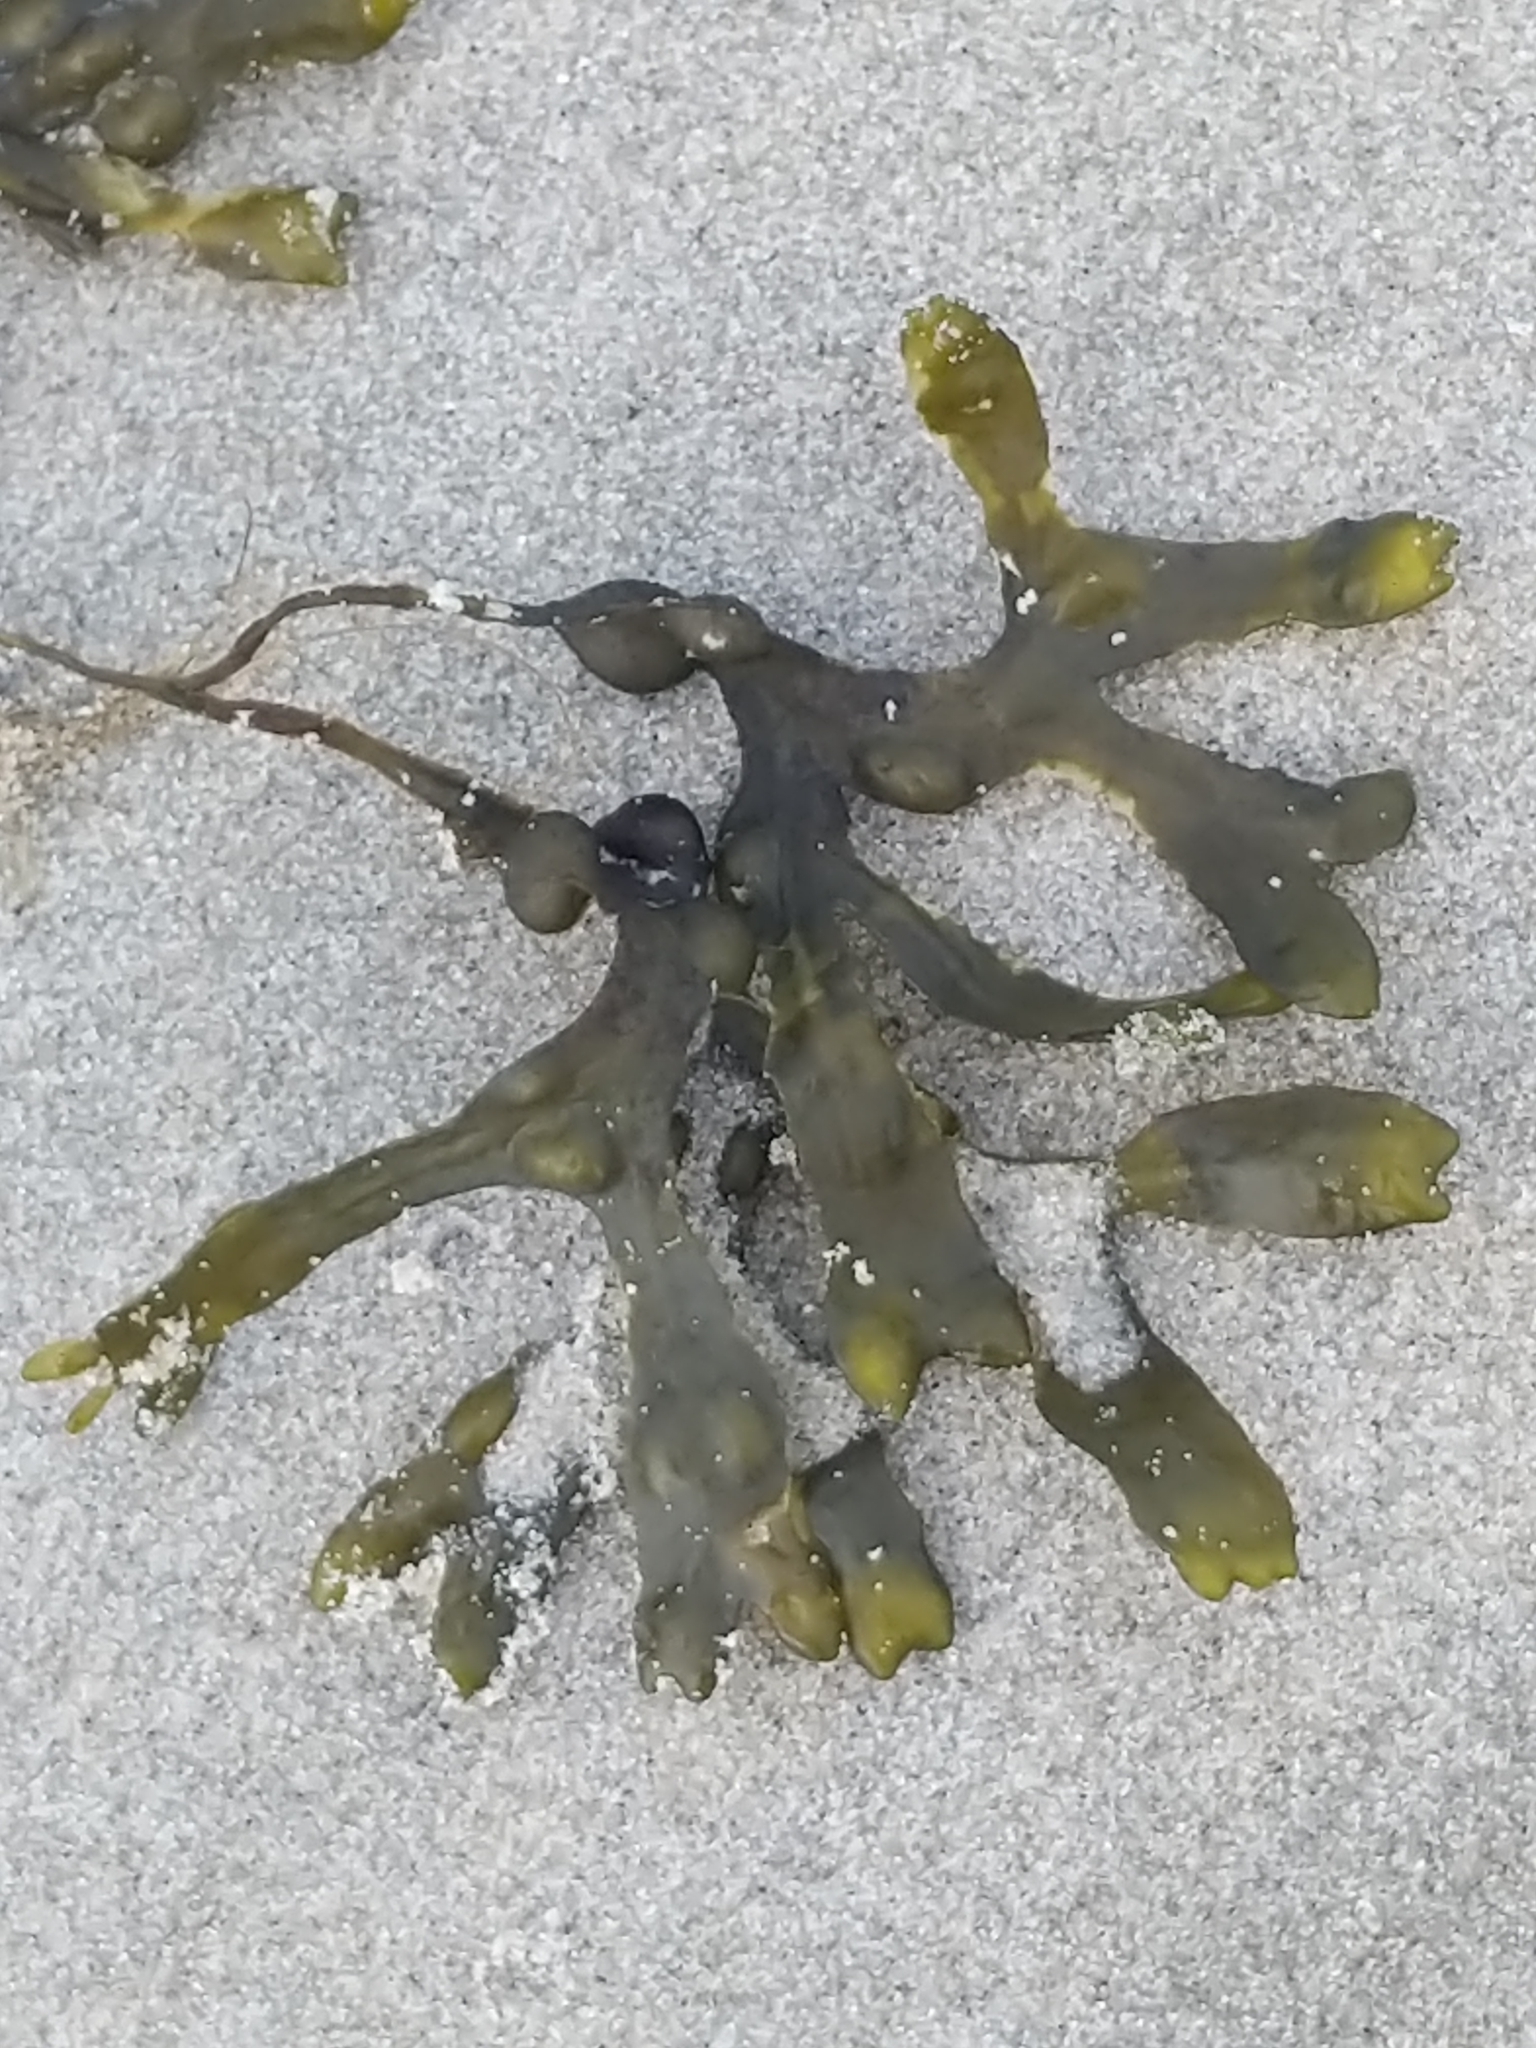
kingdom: Chromista
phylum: Ochrophyta
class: Phaeophyceae
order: Fucales
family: Fucaceae
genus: Fucus
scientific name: Fucus vesiculosus
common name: Bladder wrack
